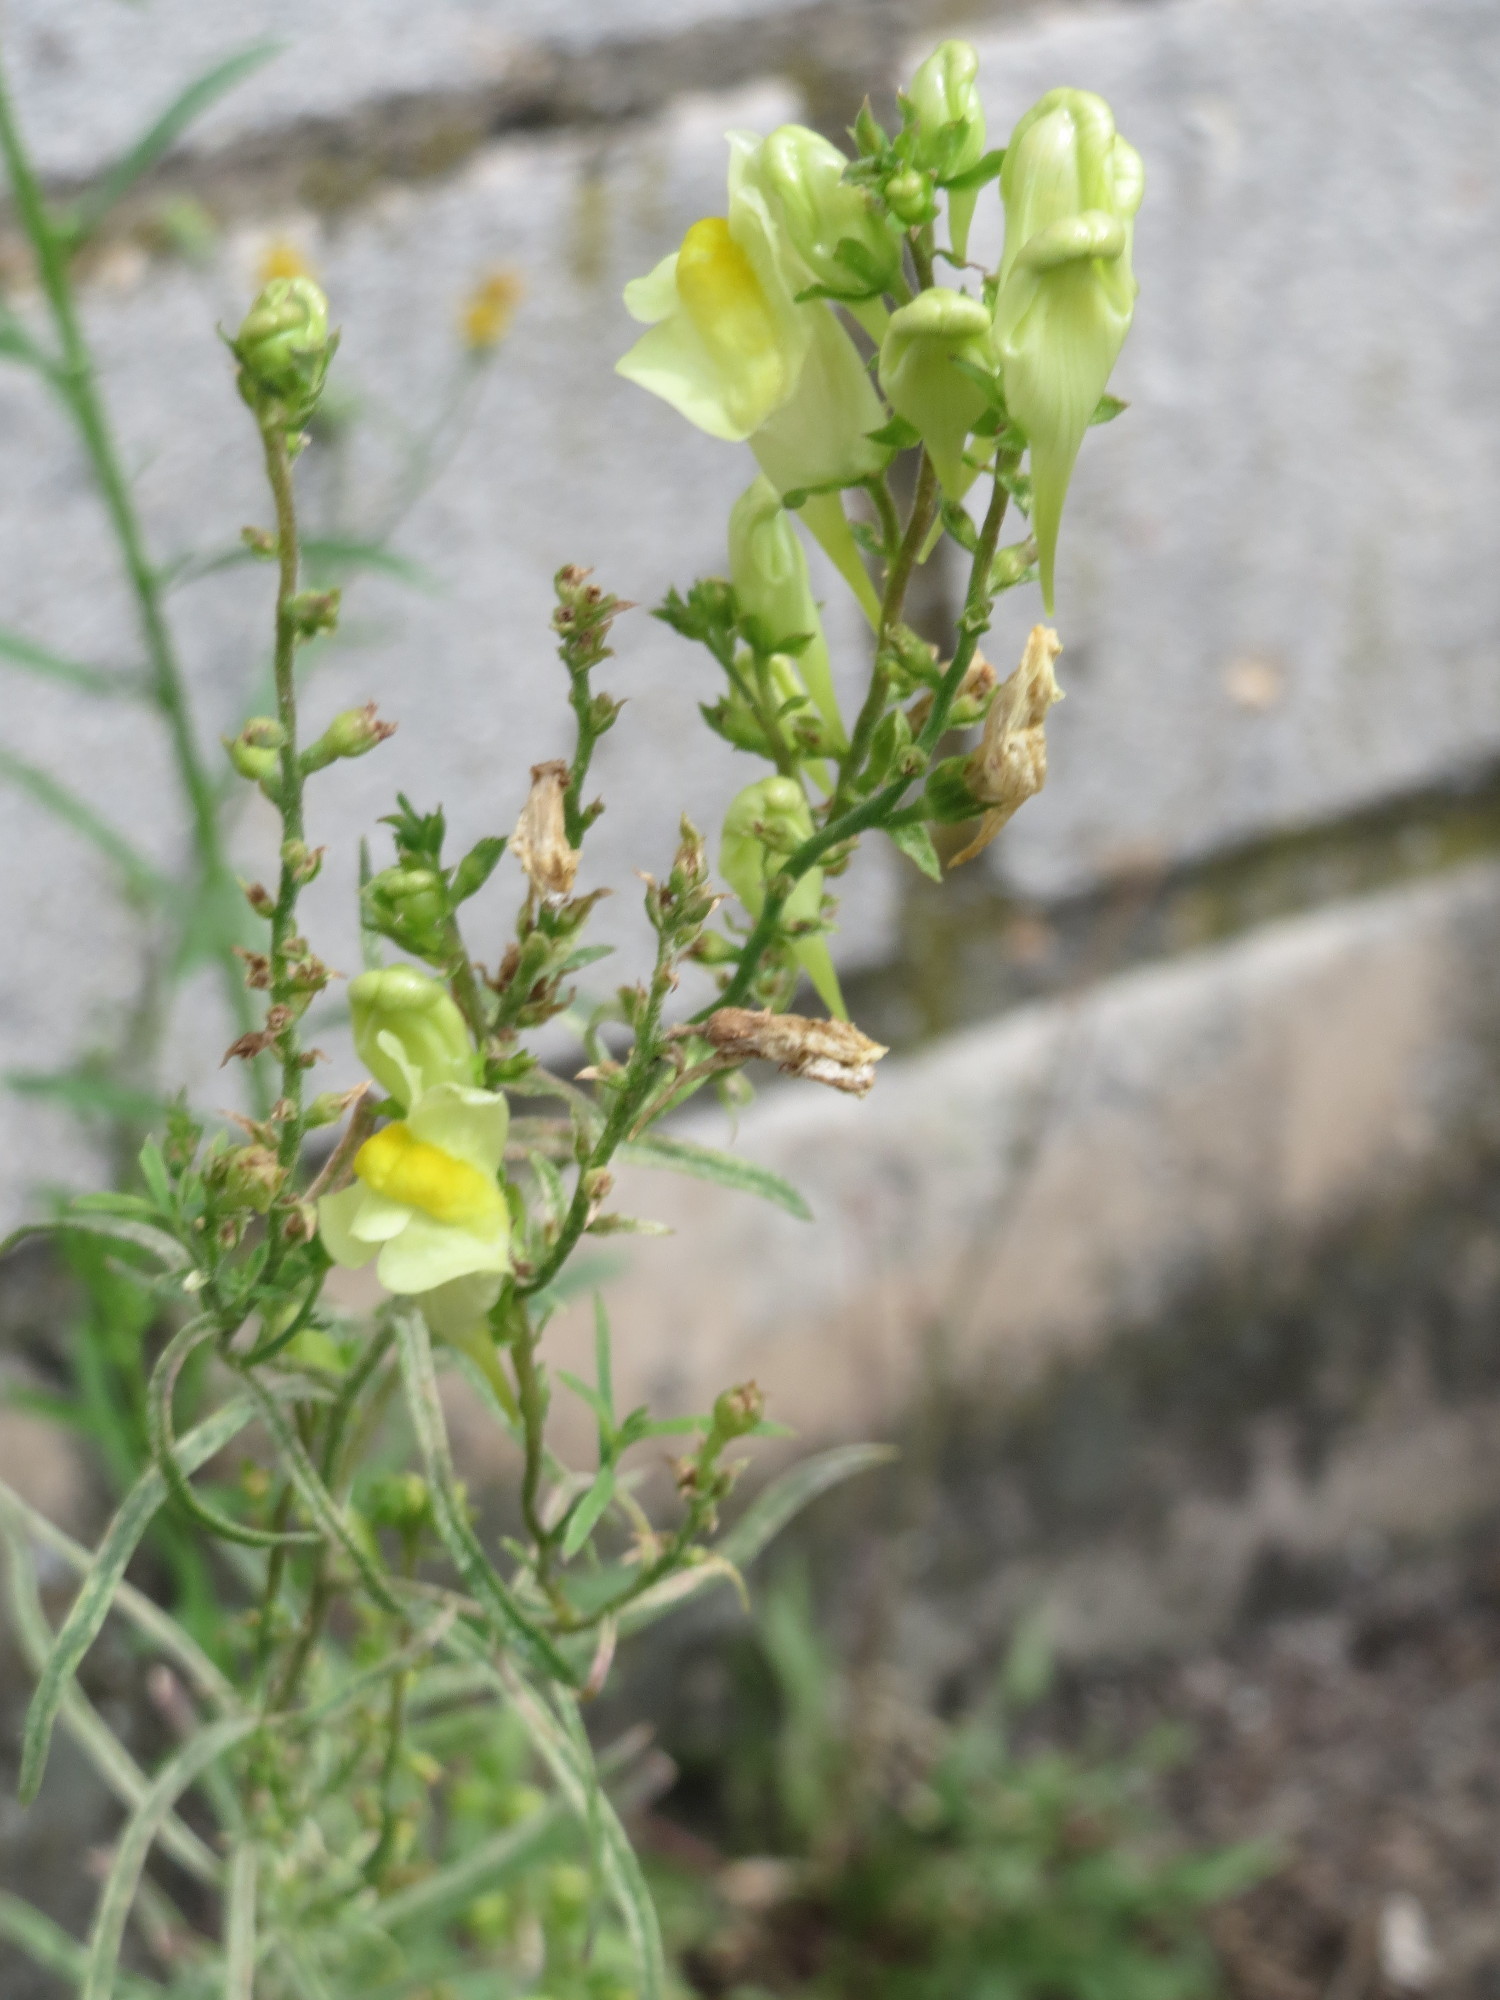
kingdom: Plantae
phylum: Tracheophyta
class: Magnoliopsida
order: Lamiales
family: Plantaginaceae
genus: Linaria
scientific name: Linaria vulgaris
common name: Butter and eggs
